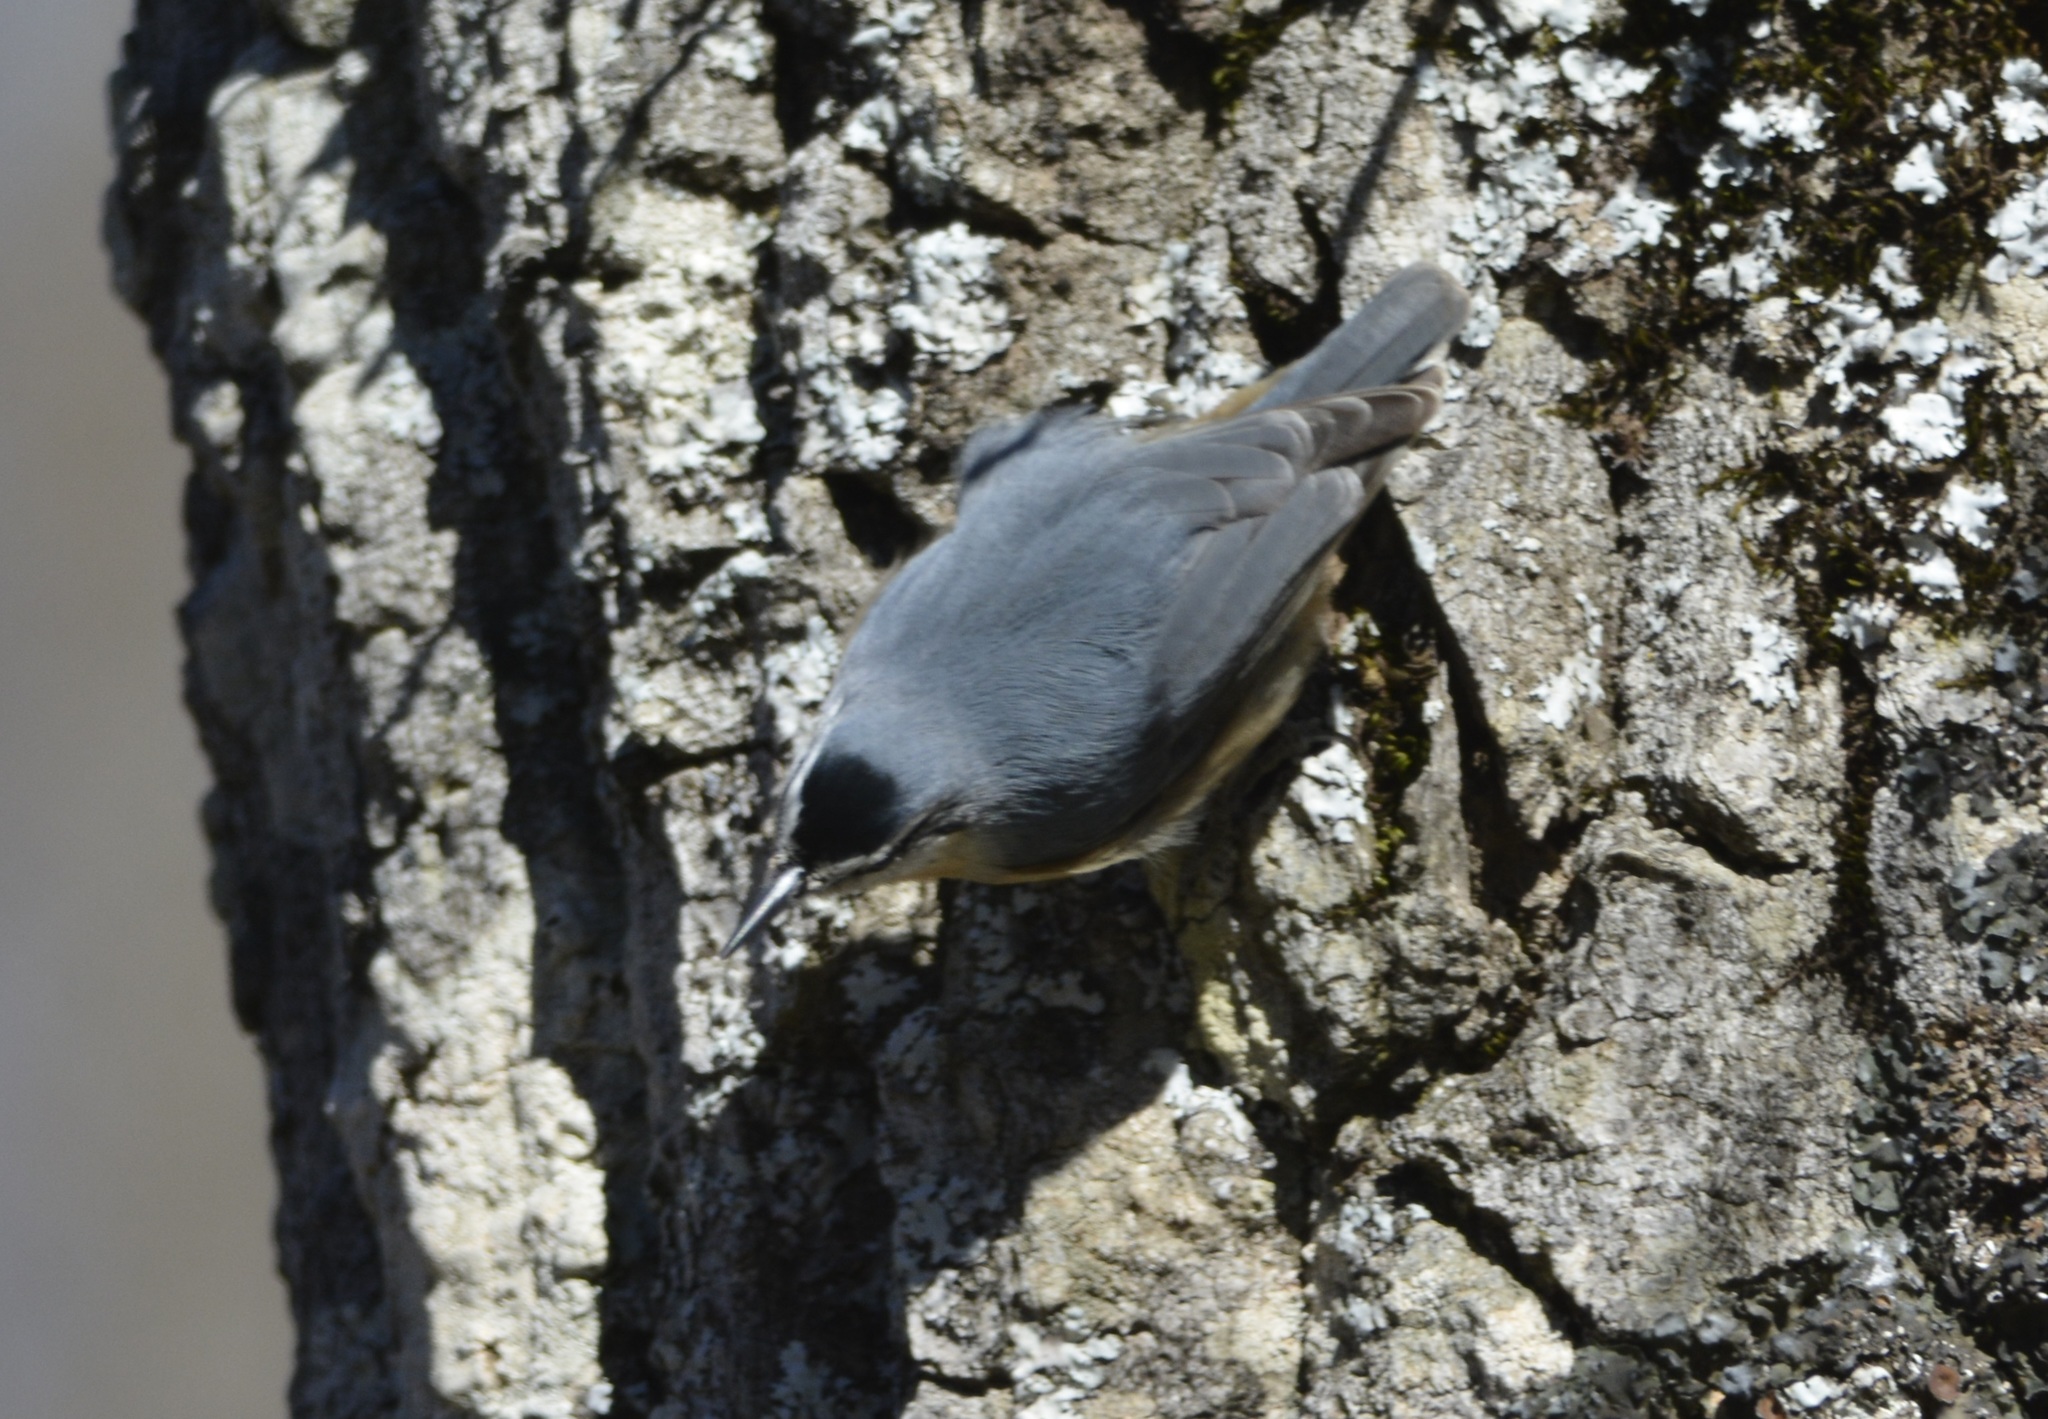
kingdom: Animalia
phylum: Chordata
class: Aves
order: Passeriformes
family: Sittidae
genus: Sitta
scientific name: Sitta ledanti
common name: Algerian nuthatch
